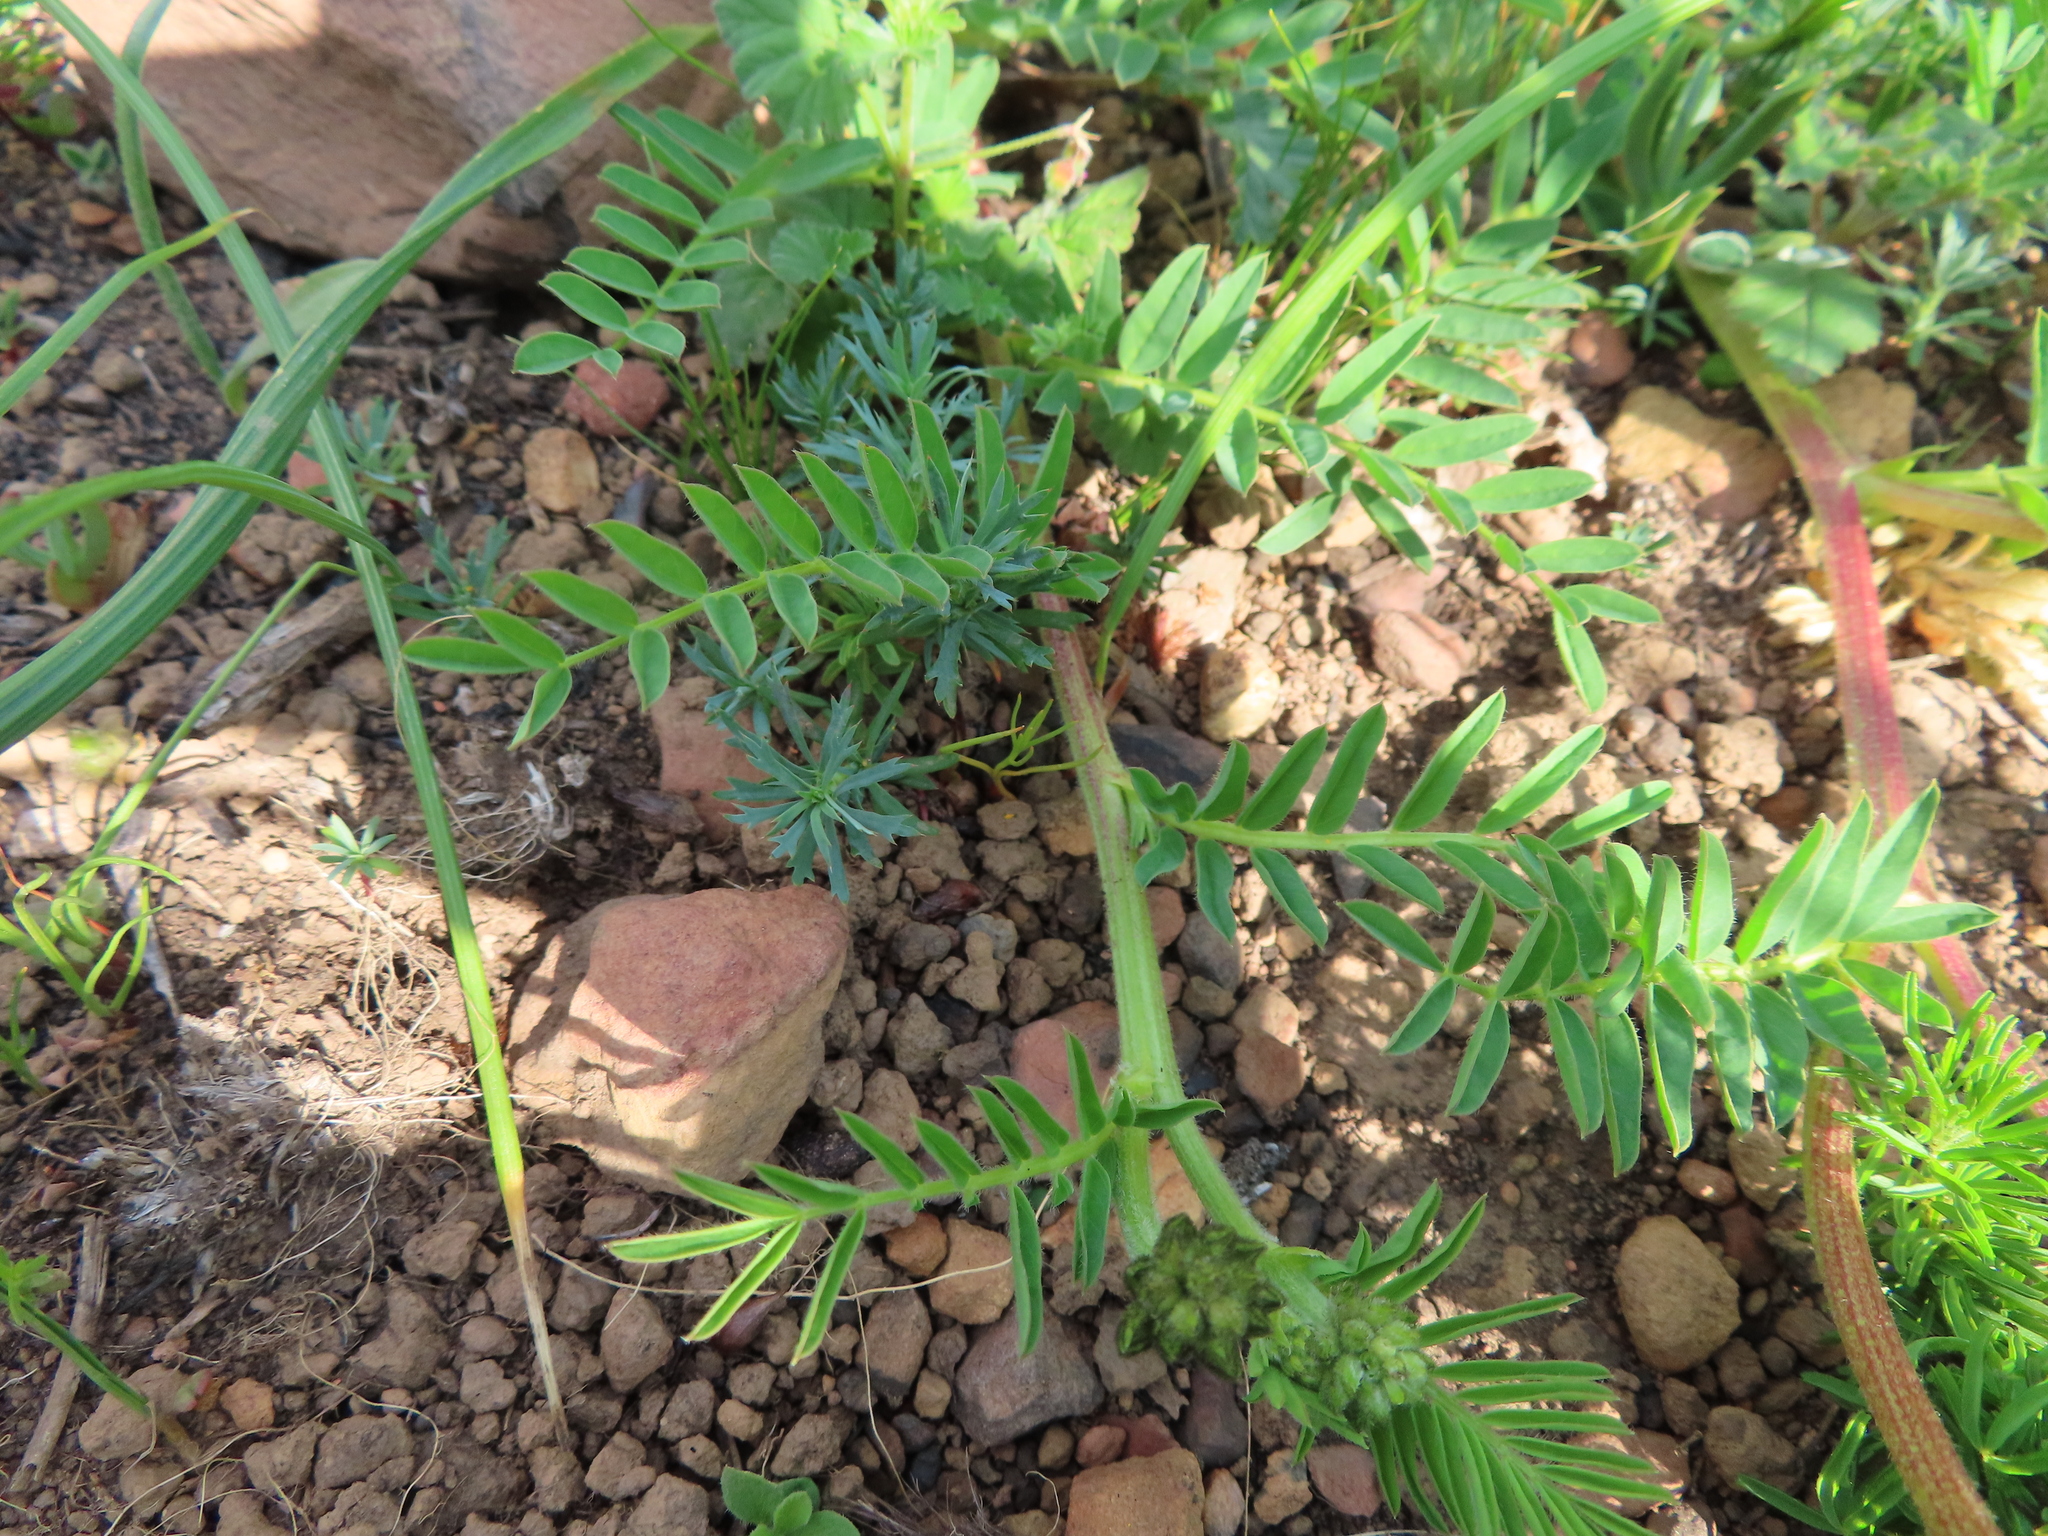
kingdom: Plantae
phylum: Tracheophyta
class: Magnoliopsida
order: Fabales
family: Fabaceae
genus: Lessertia
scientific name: Lessertia capensis
